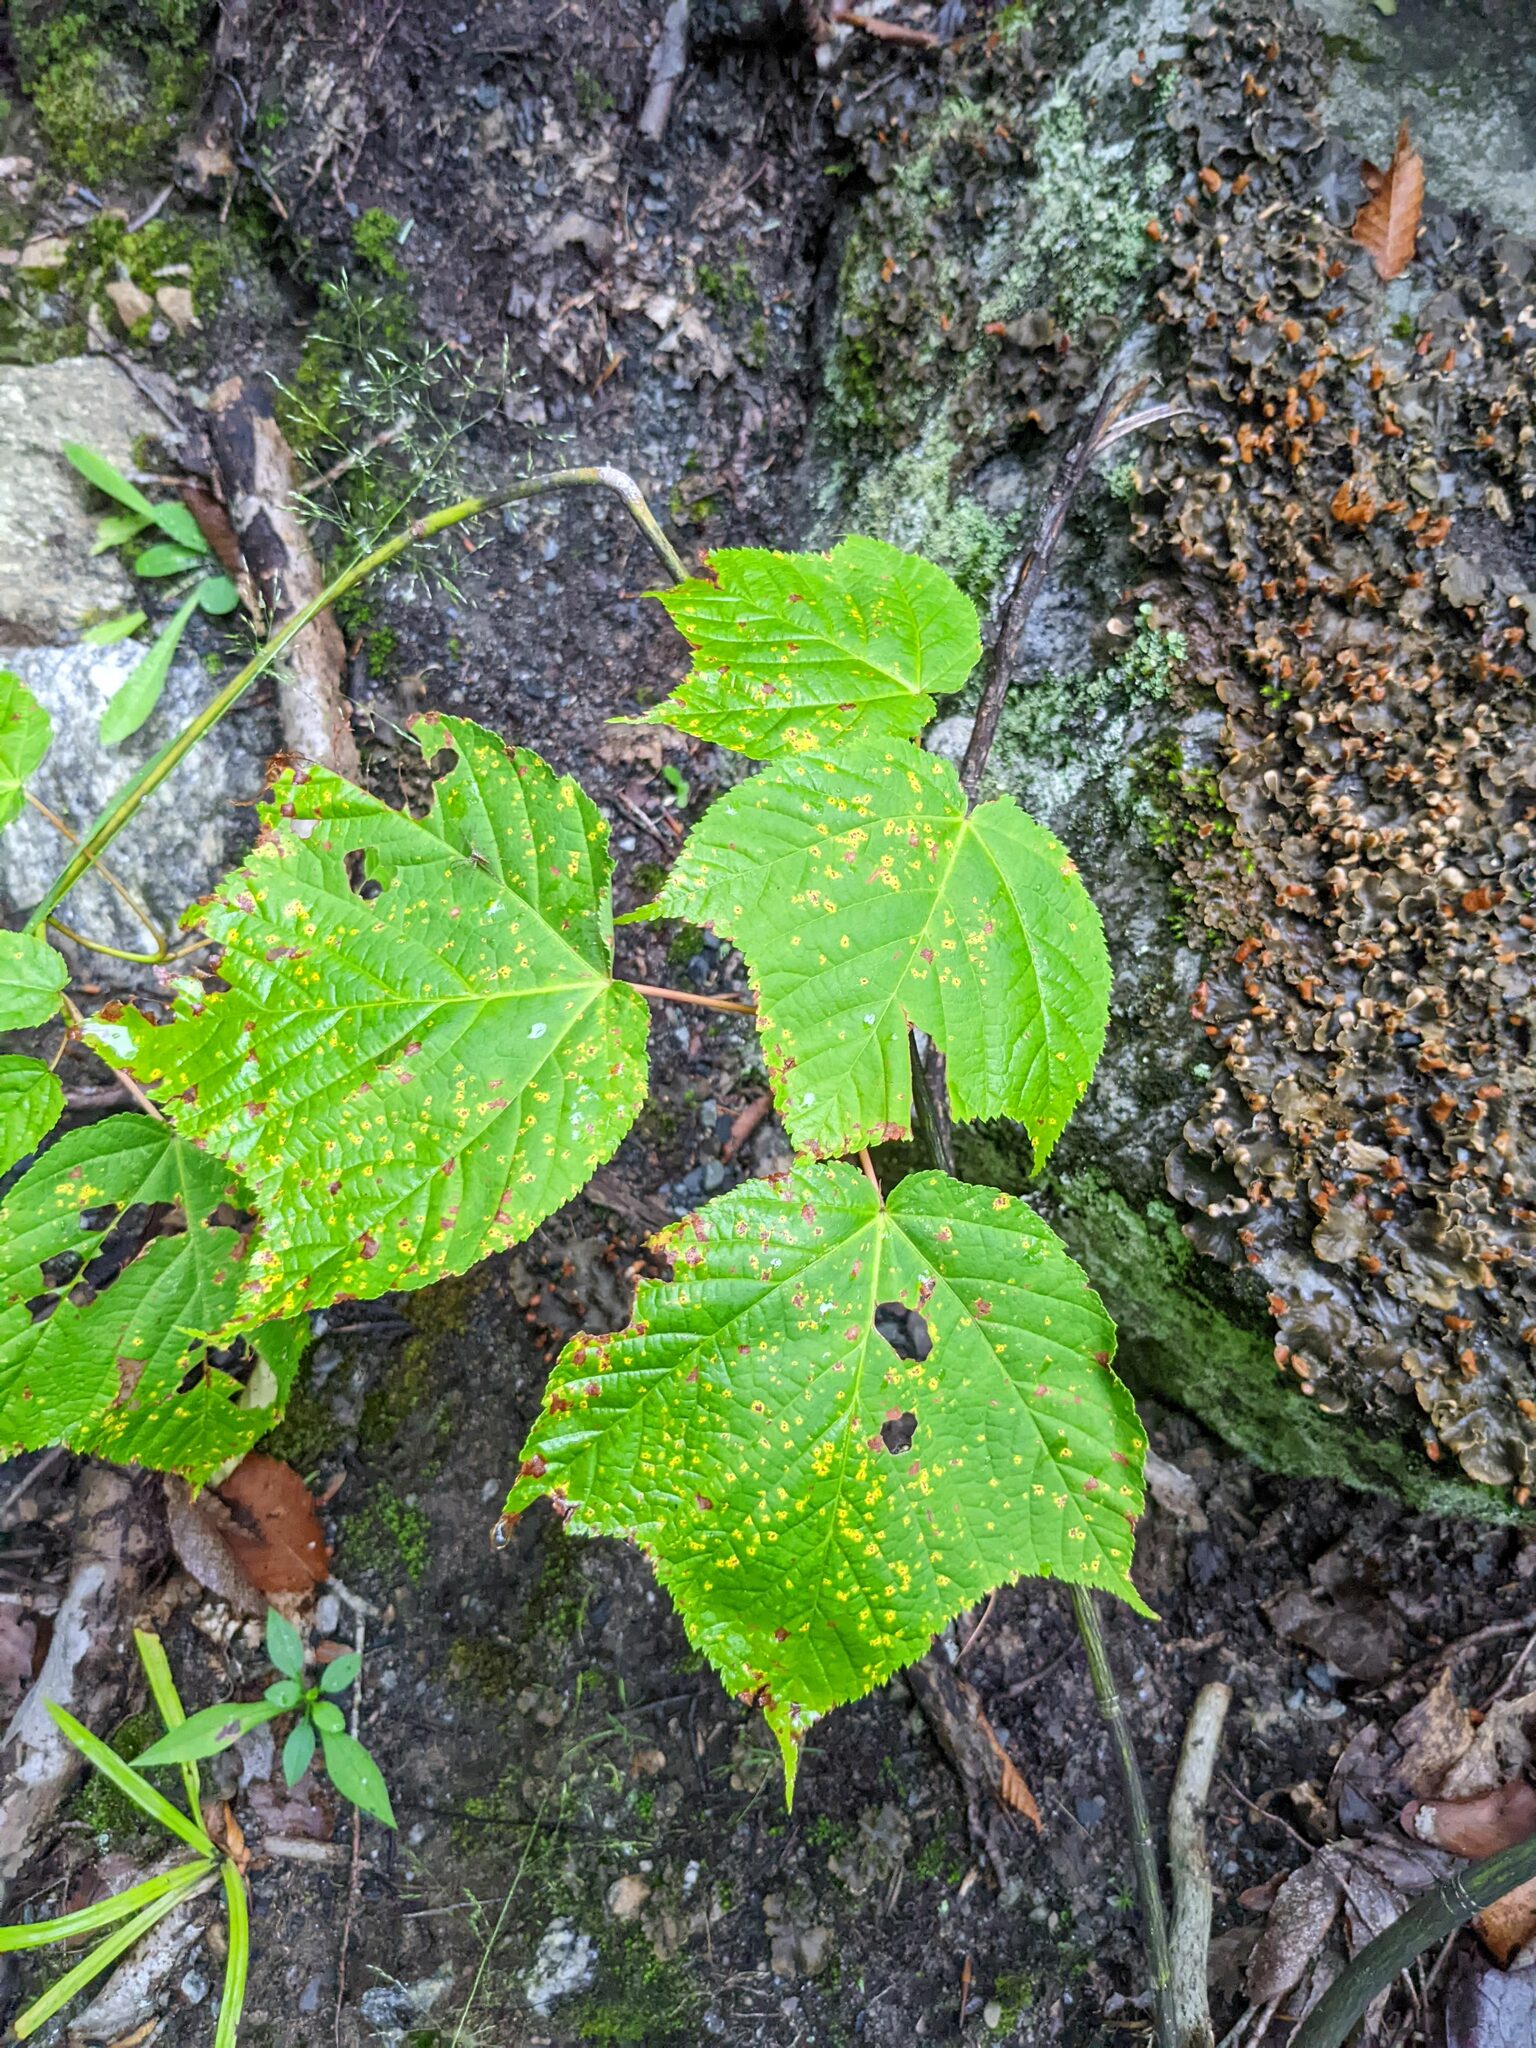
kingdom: Plantae
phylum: Tracheophyta
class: Magnoliopsida
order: Sapindales
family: Sapindaceae
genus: Acer
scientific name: Acer pensylvanicum
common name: Moosewood
